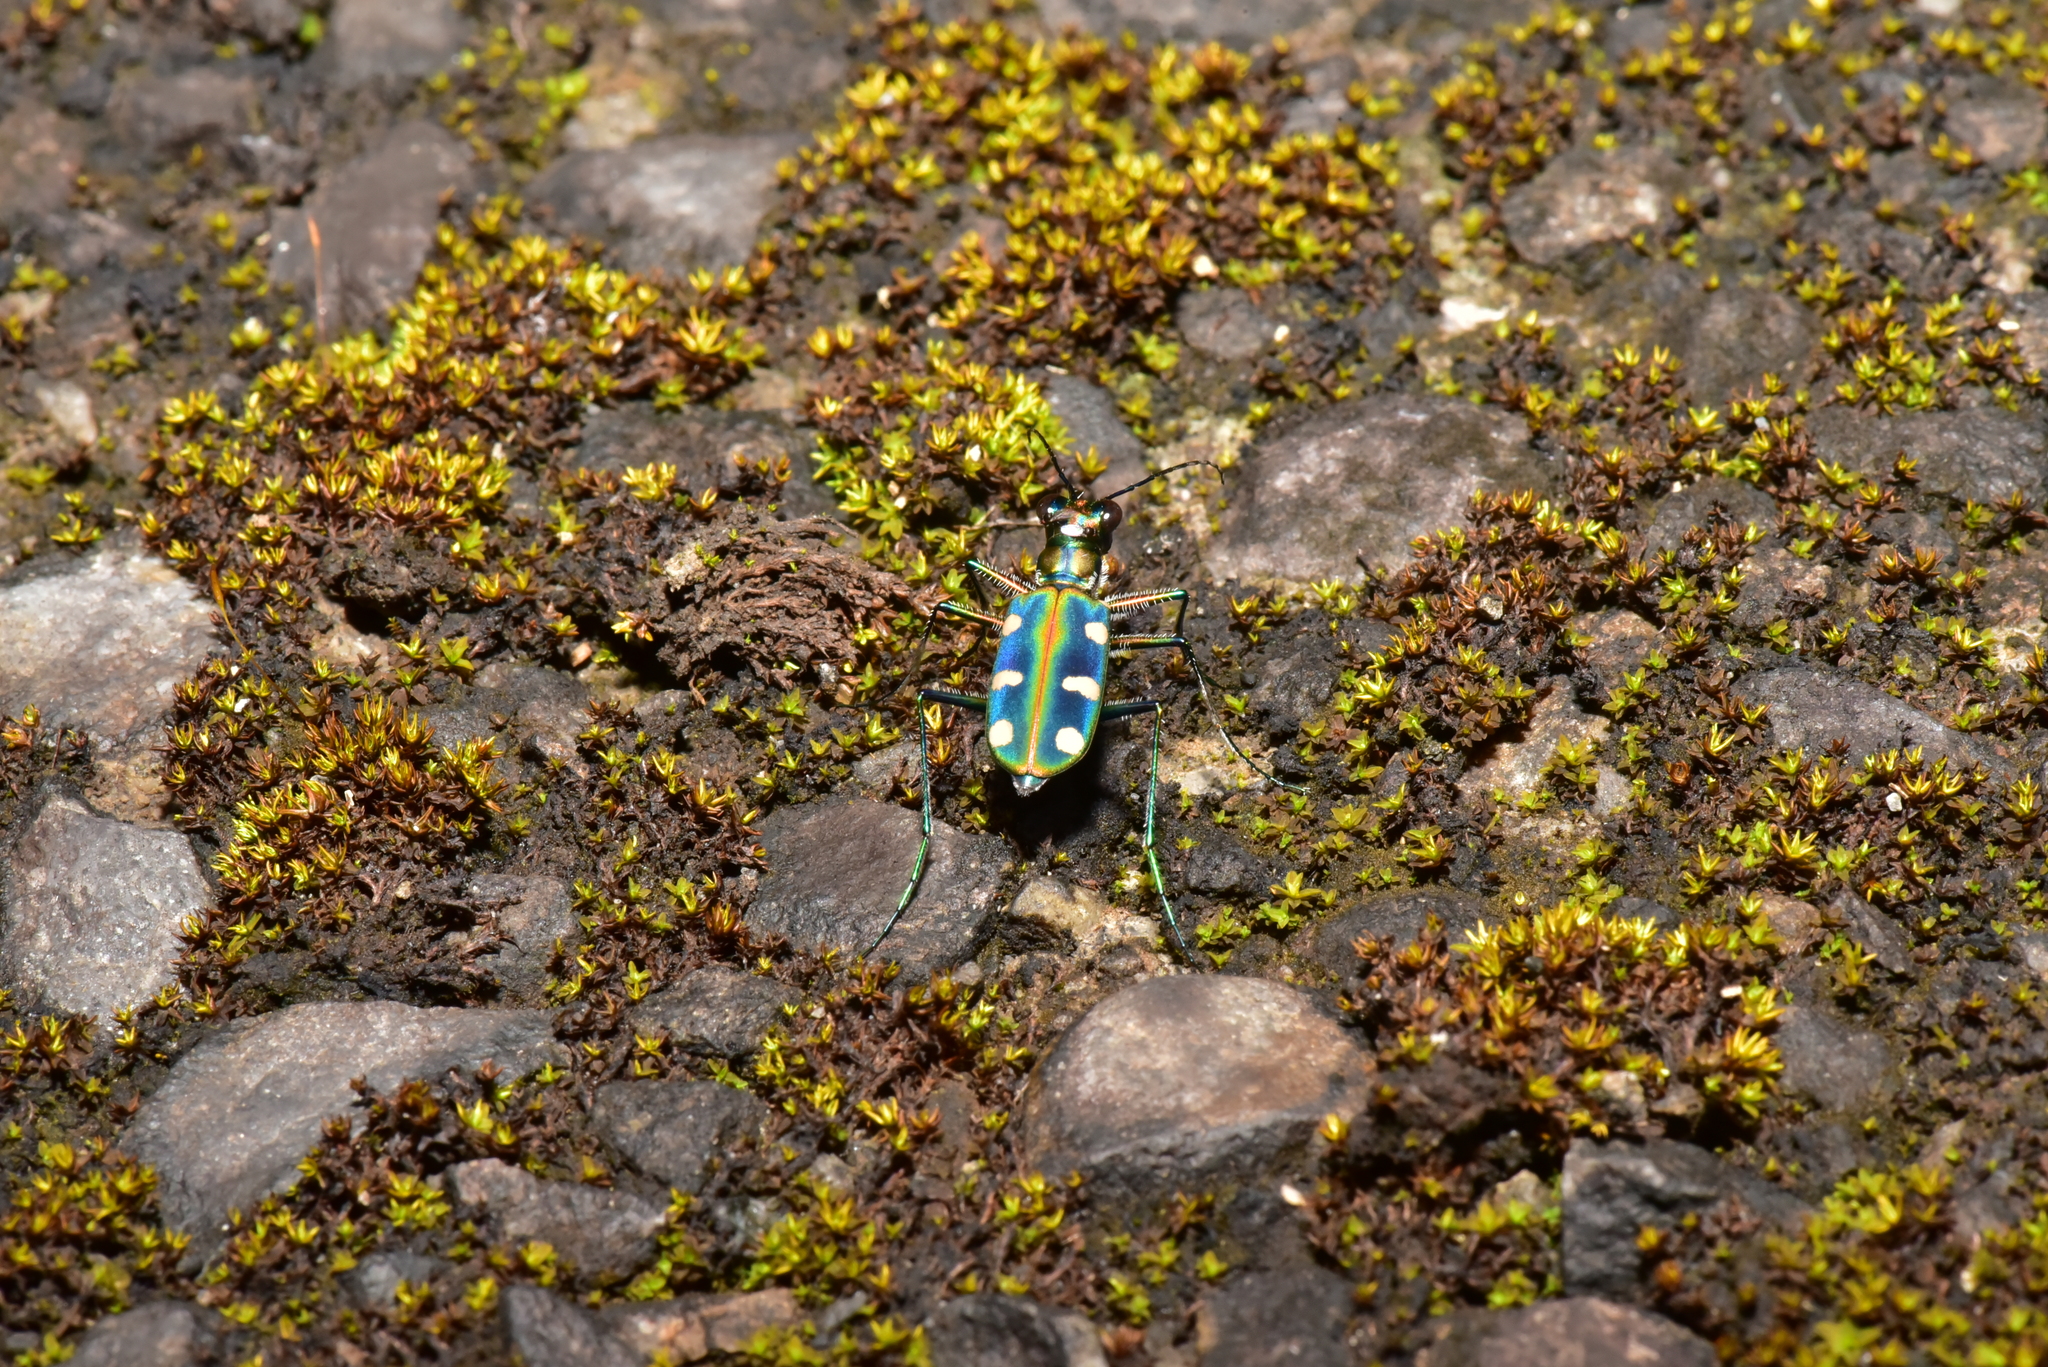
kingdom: Animalia
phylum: Arthropoda
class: Insecta
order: Coleoptera
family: Carabidae
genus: Cicindela
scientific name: Cicindela batesi
